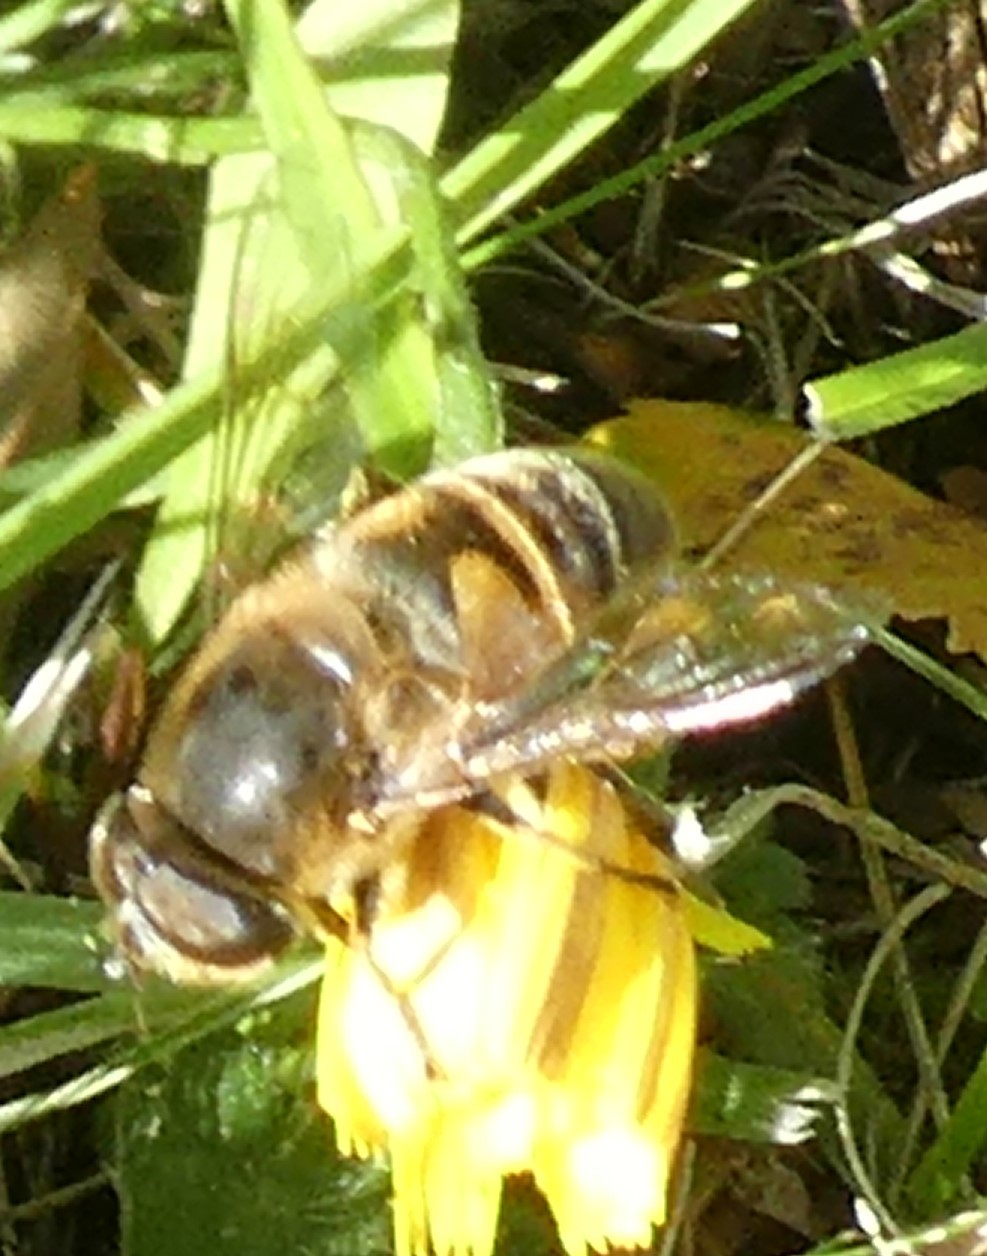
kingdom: Animalia
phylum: Arthropoda
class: Insecta
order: Diptera
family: Syrphidae
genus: Eristalis
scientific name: Eristalis tenax
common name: Drone fly
